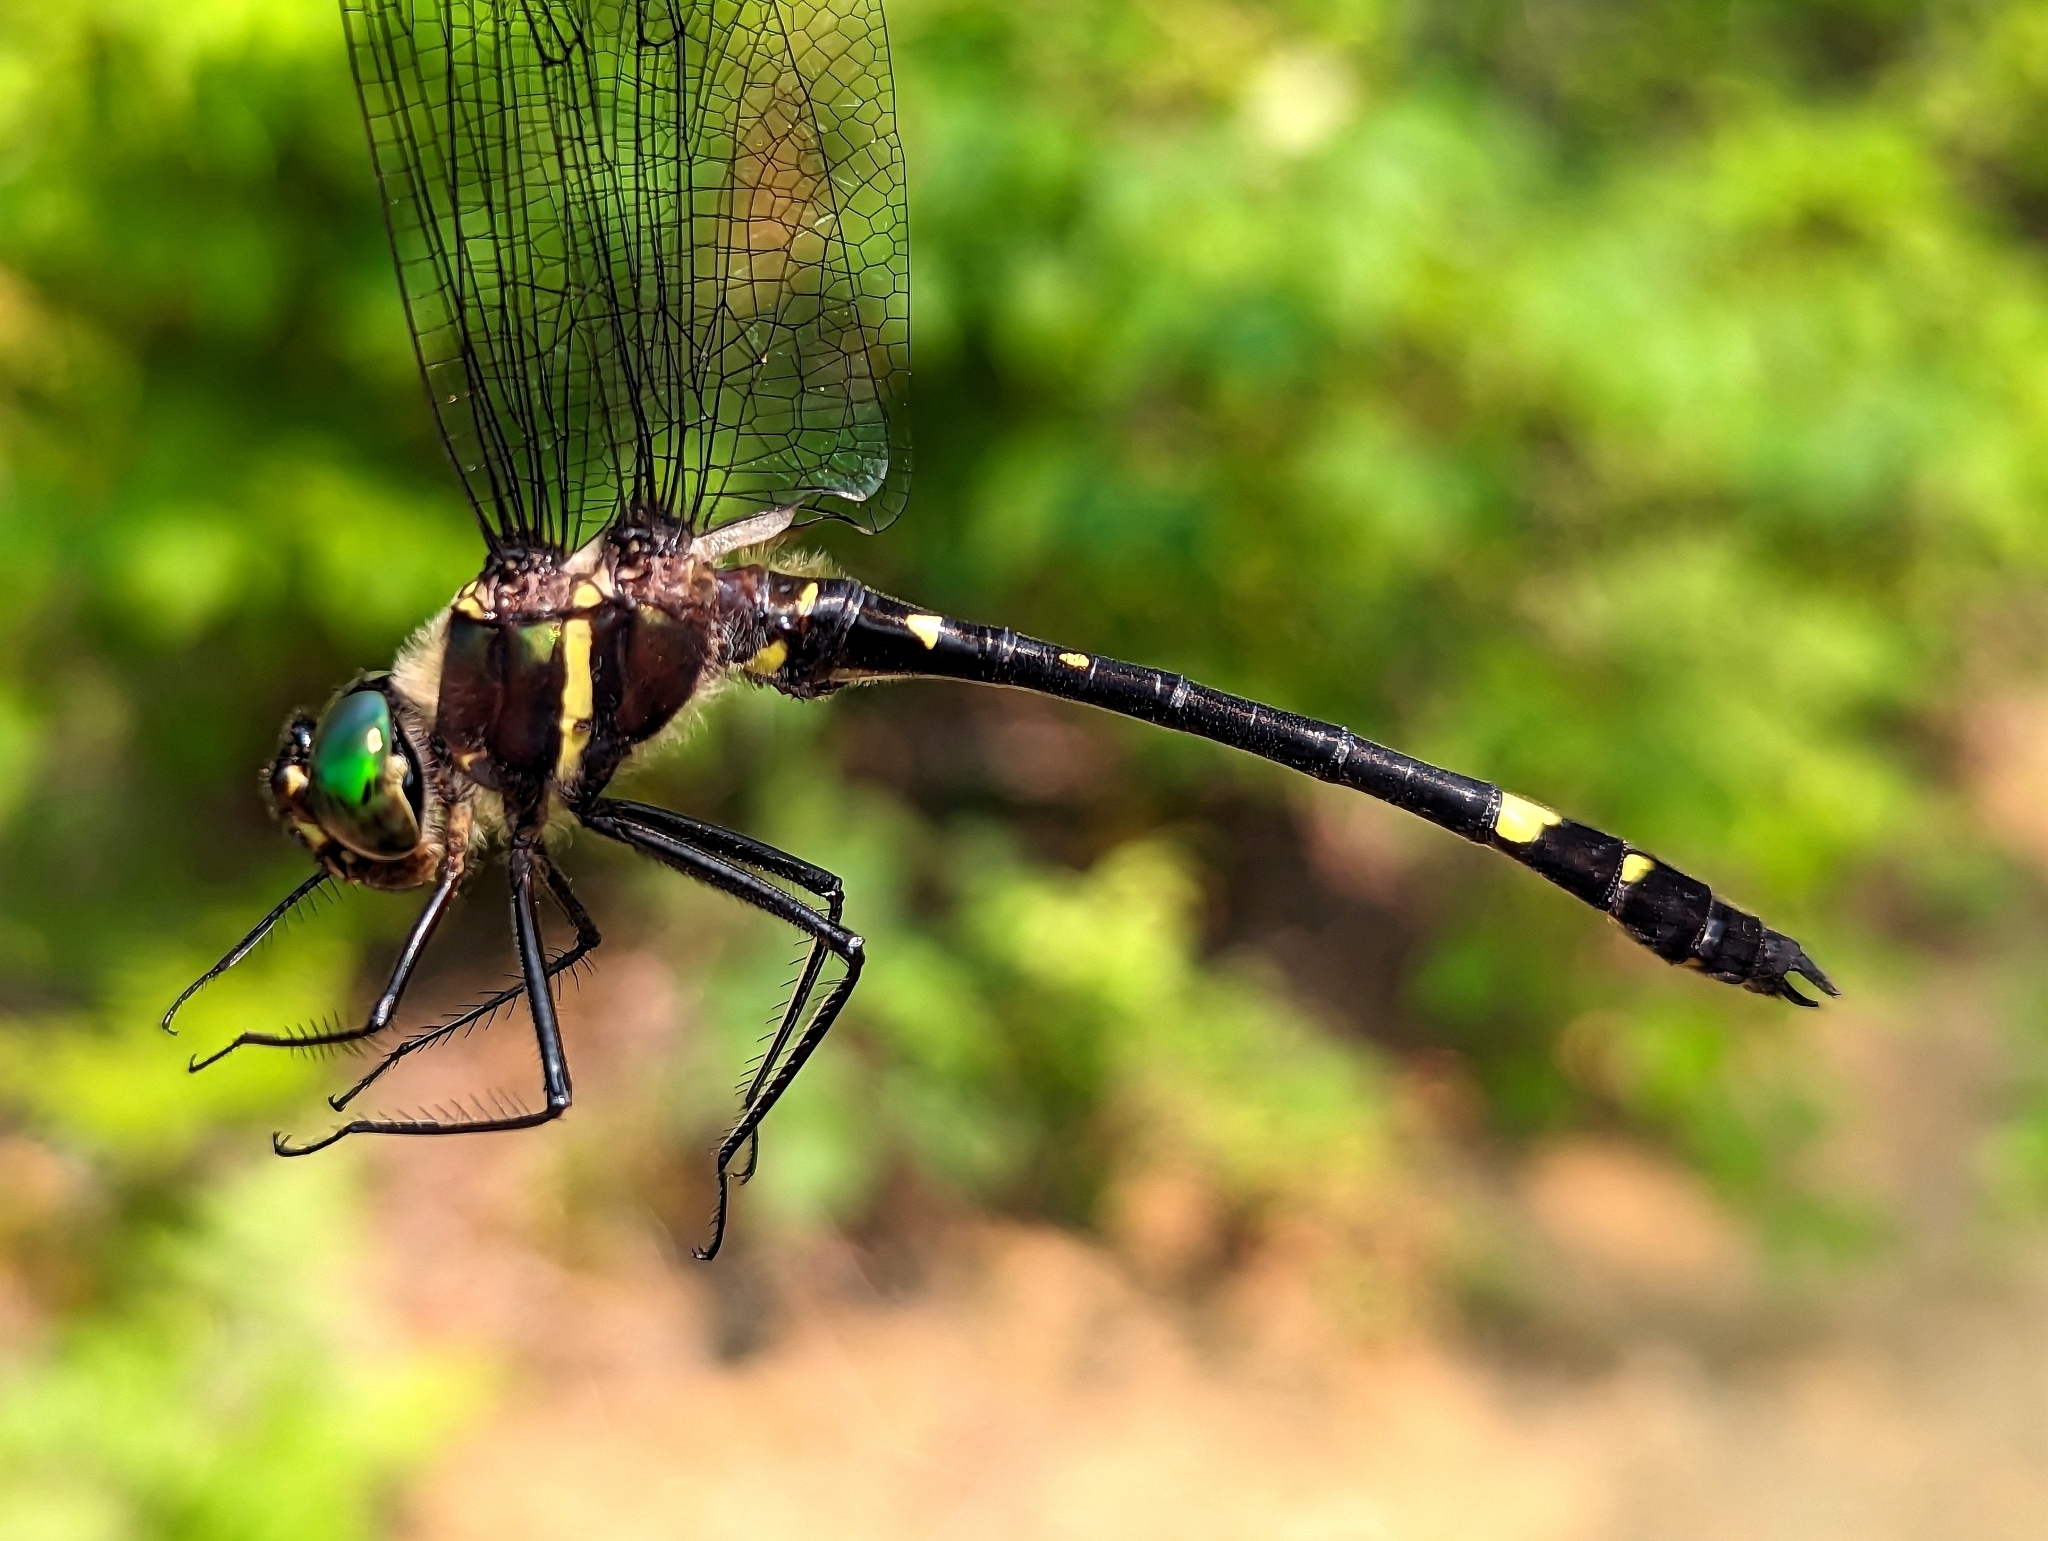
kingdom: Animalia
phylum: Arthropoda
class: Insecta
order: Odonata
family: Macromiidae
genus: Macromia
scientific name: Macromia illinoiensis
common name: Swift river cruiser
